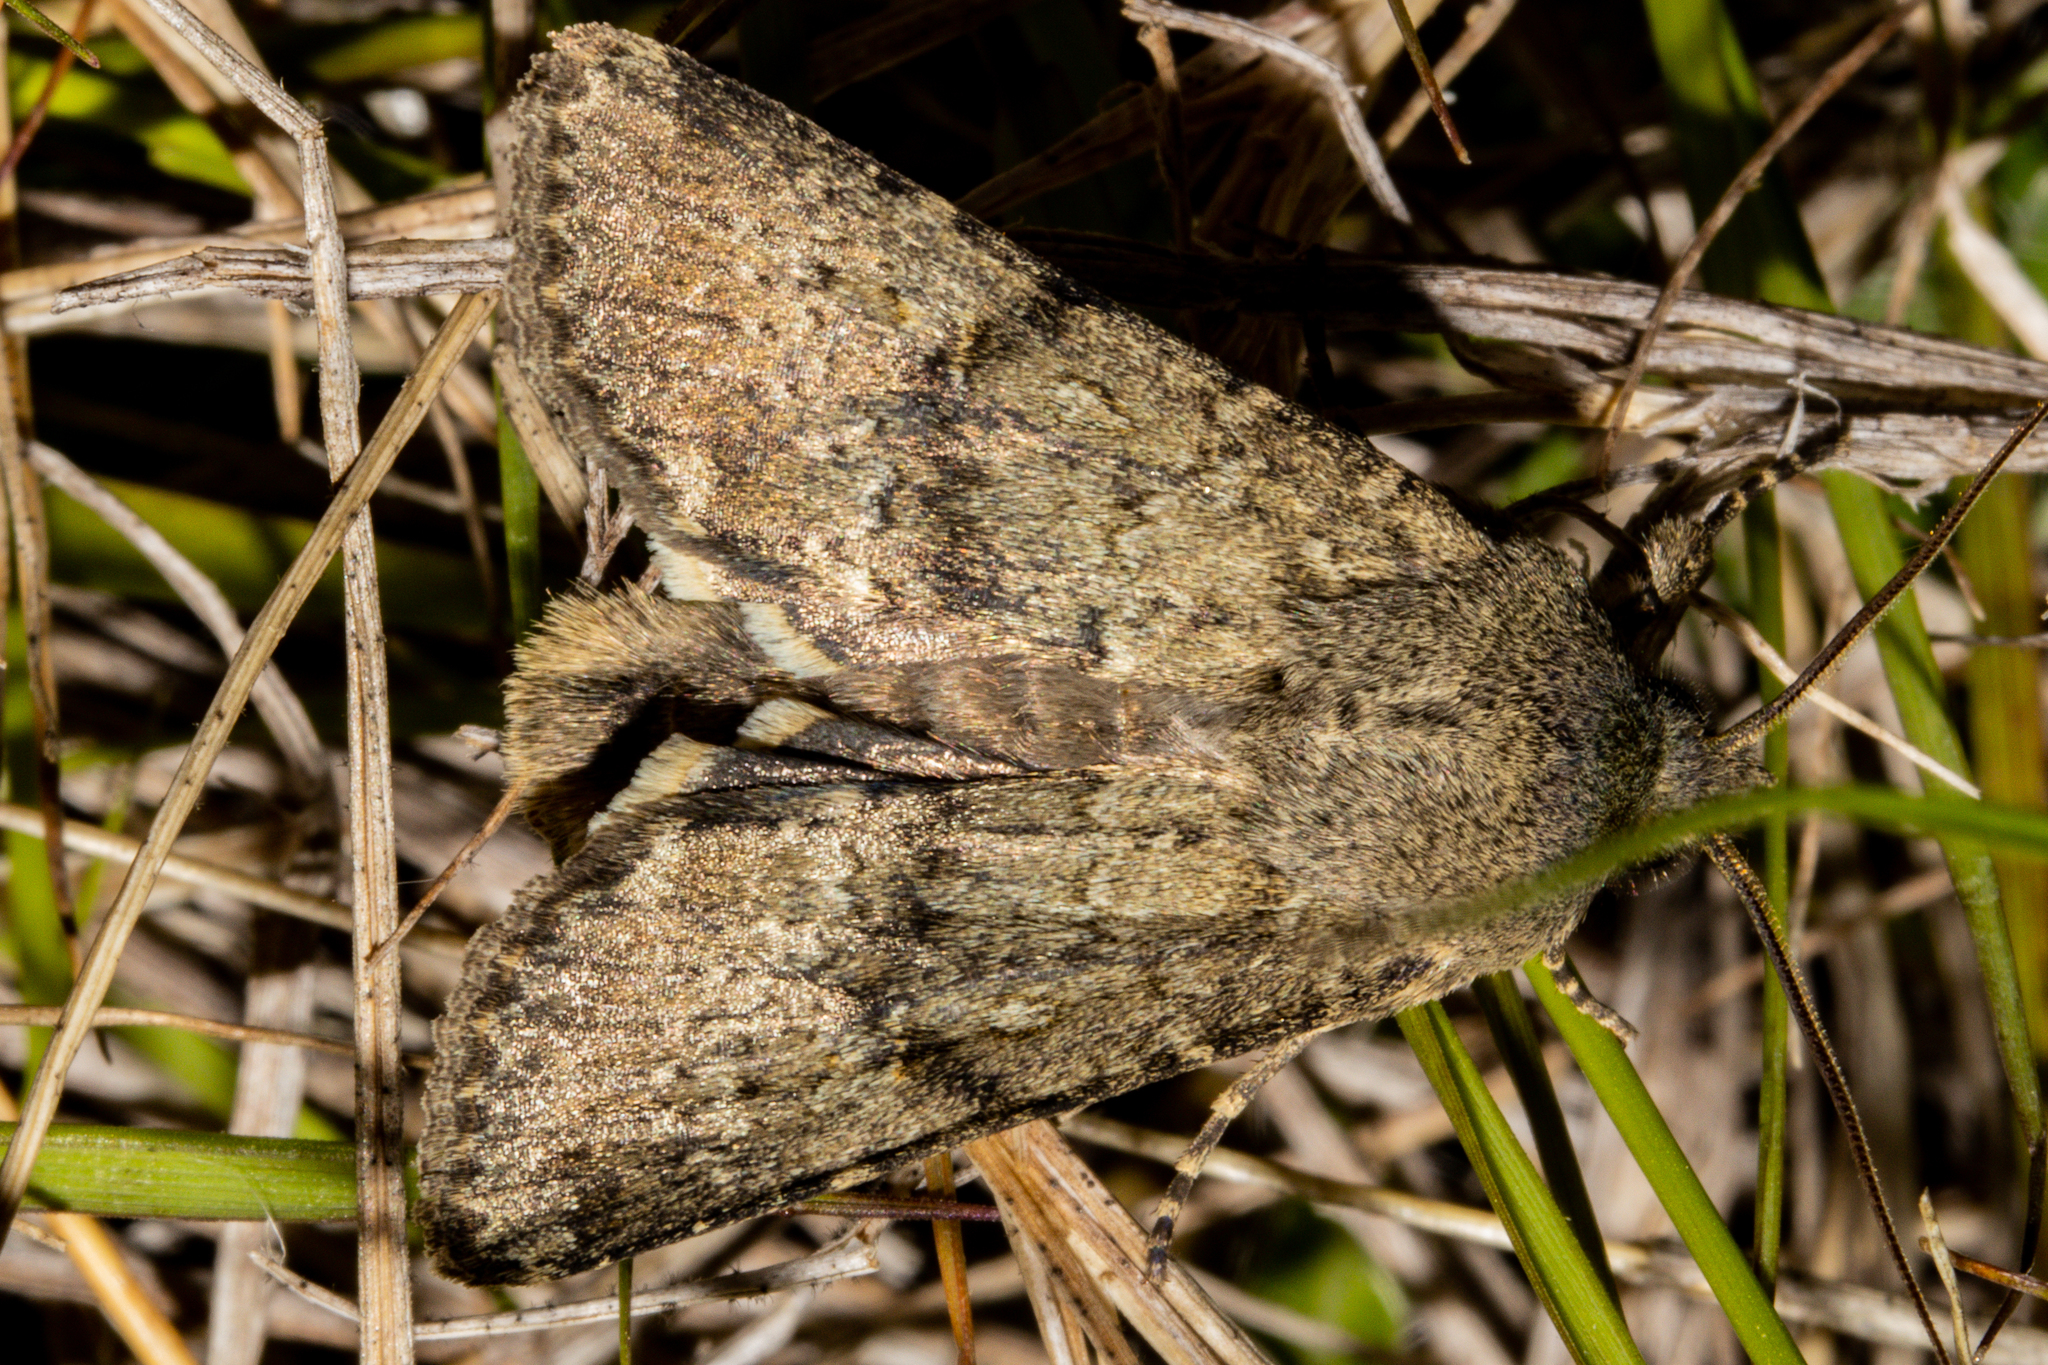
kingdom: Animalia
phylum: Arthropoda
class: Insecta
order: Lepidoptera
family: Noctuidae
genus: Ichneutica
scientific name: Ichneutica moderata
